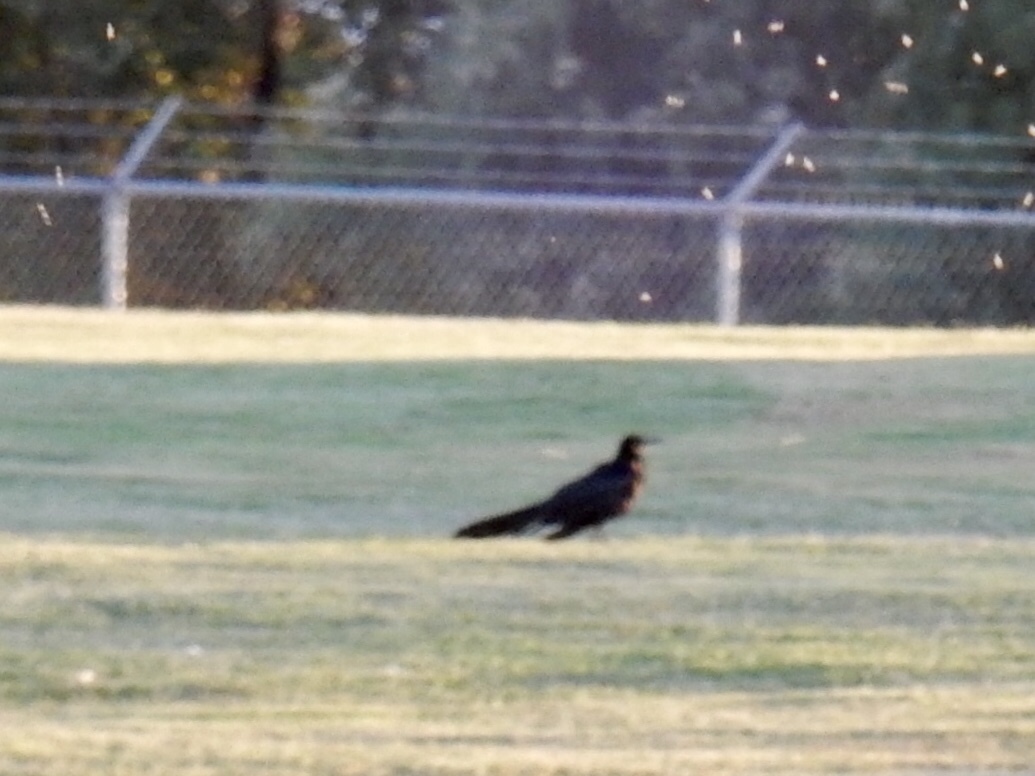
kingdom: Animalia
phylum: Chordata
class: Aves
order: Passeriformes
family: Icteridae
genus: Quiscalus
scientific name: Quiscalus mexicanus
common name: Great-tailed grackle
